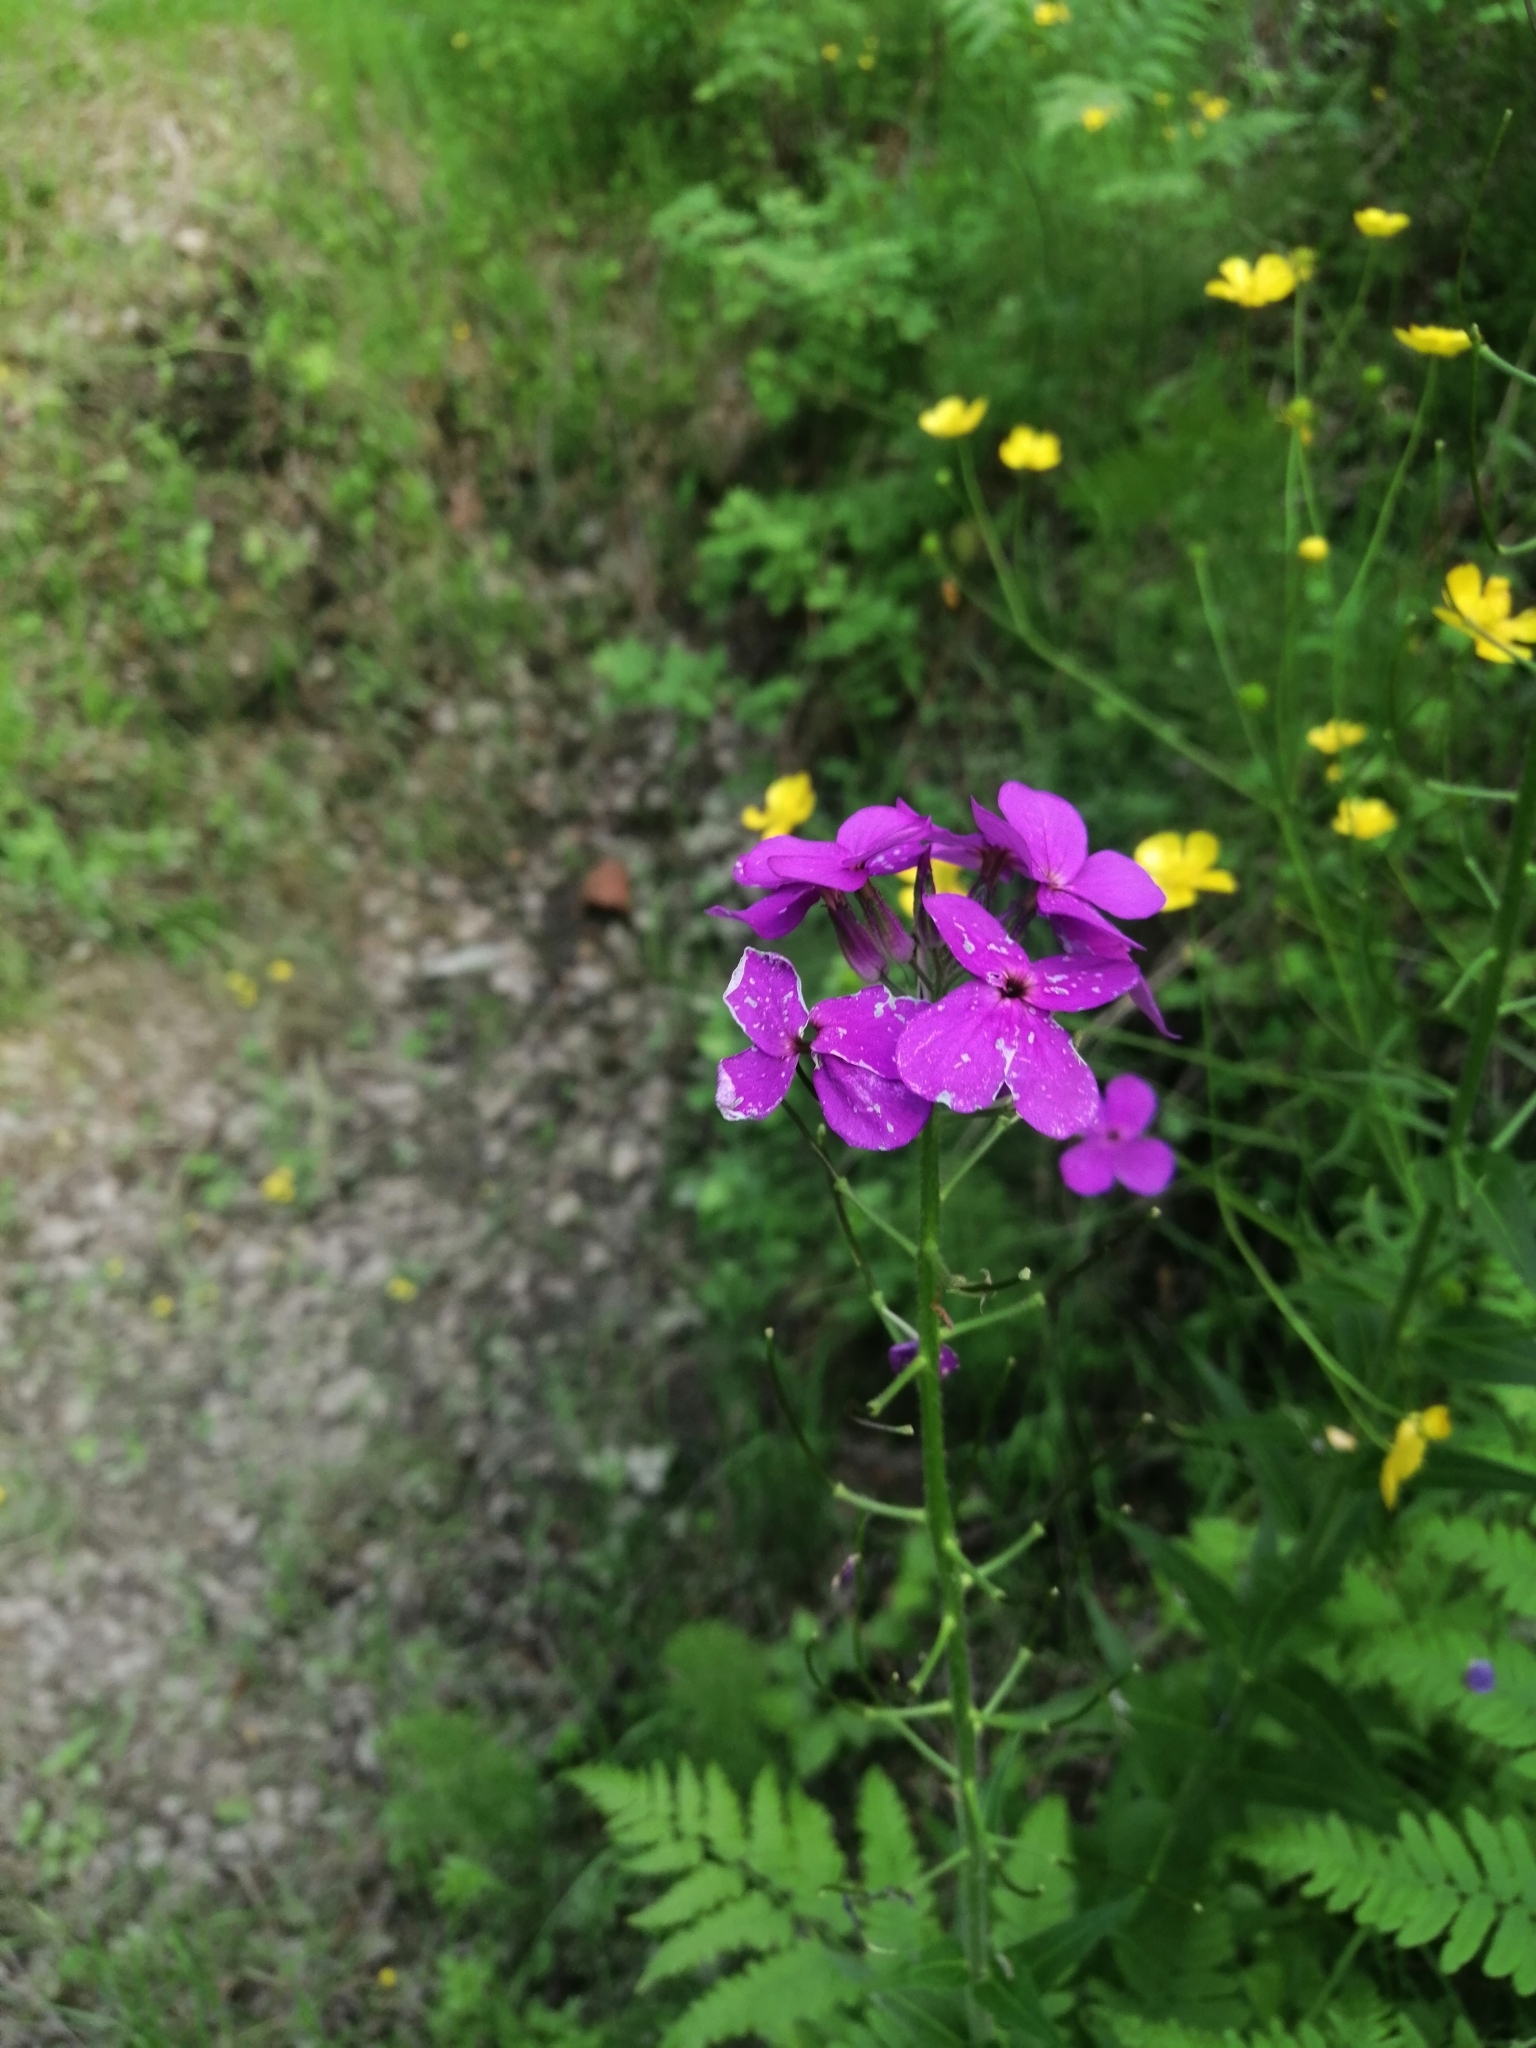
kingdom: Plantae
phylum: Tracheophyta
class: Magnoliopsida
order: Brassicales
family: Brassicaceae
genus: Hesperis
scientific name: Hesperis sibirica
